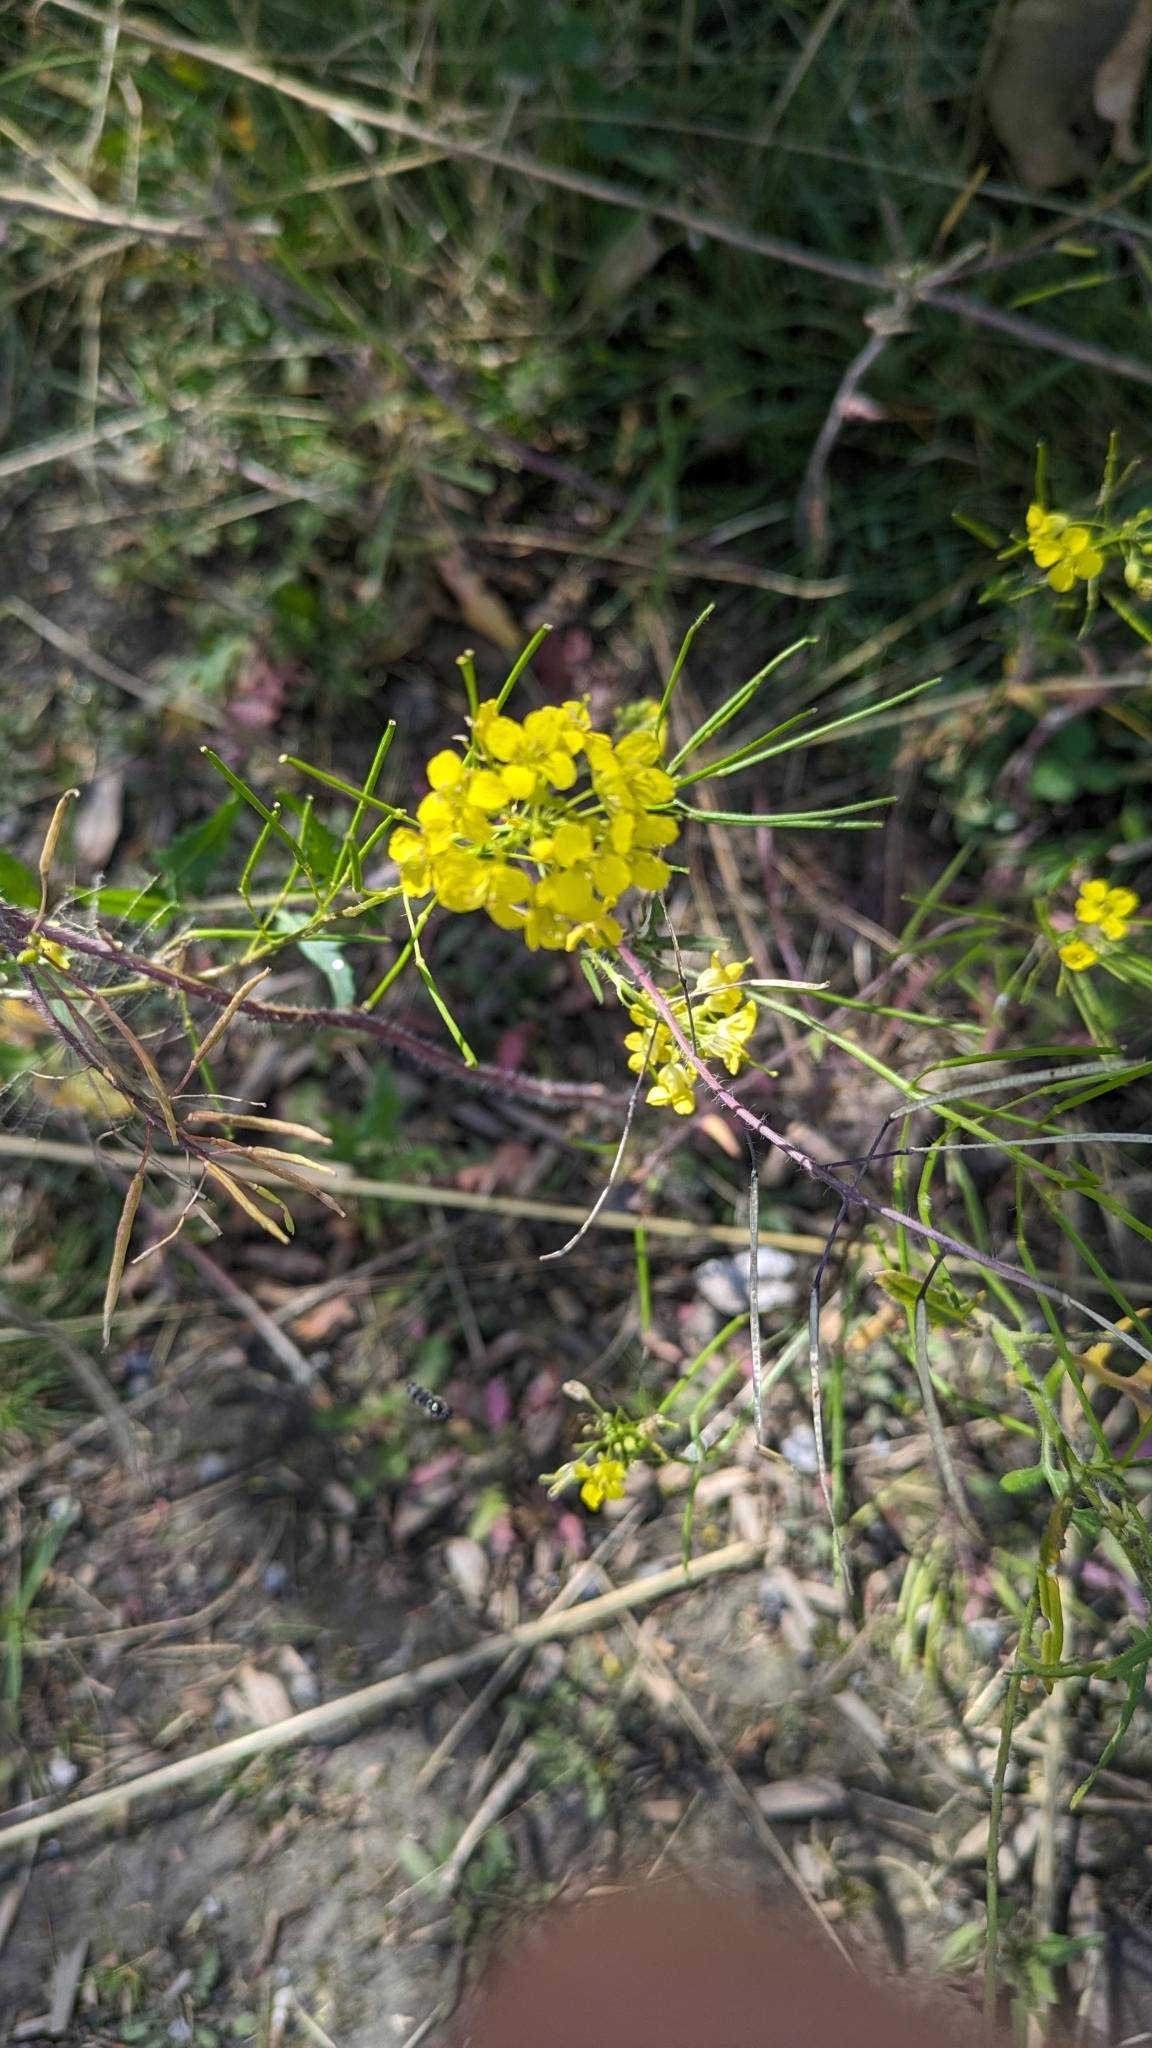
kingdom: Plantae
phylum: Tracheophyta
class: Magnoliopsida
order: Brassicales
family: Brassicaceae
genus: Sisymbrium
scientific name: Sisymbrium loeselii
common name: False london-rocket
